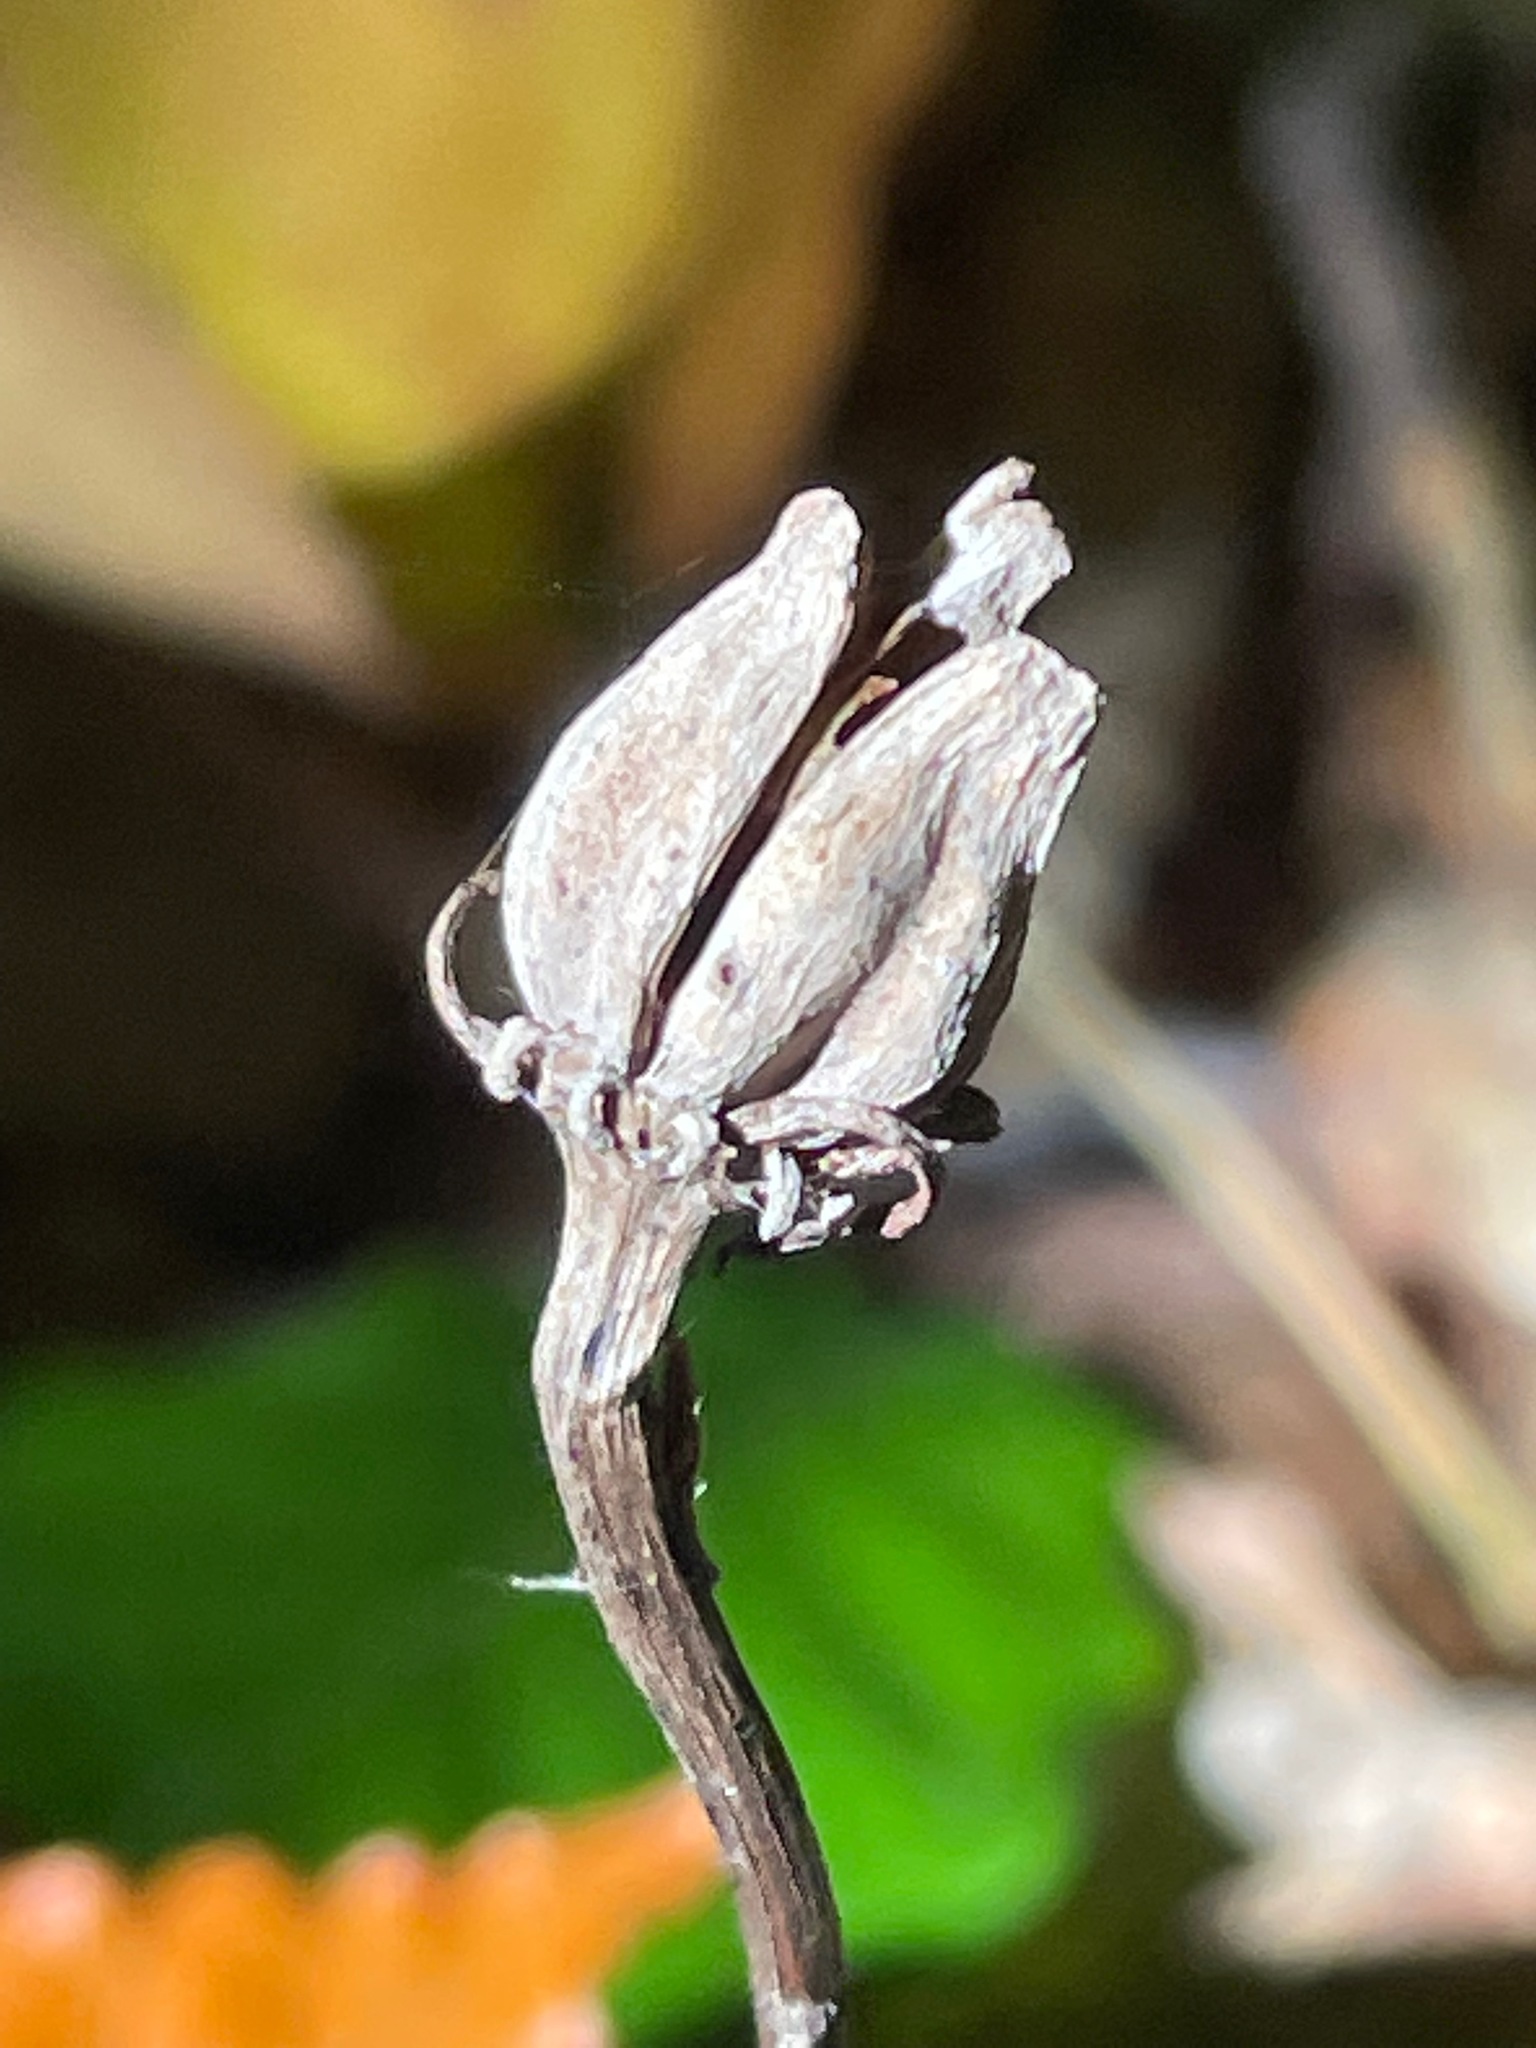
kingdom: Plantae
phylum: Tracheophyta
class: Magnoliopsida
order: Ericales
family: Ericaceae
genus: Monotropa
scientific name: Monotropa uniflora
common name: Convulsion root
